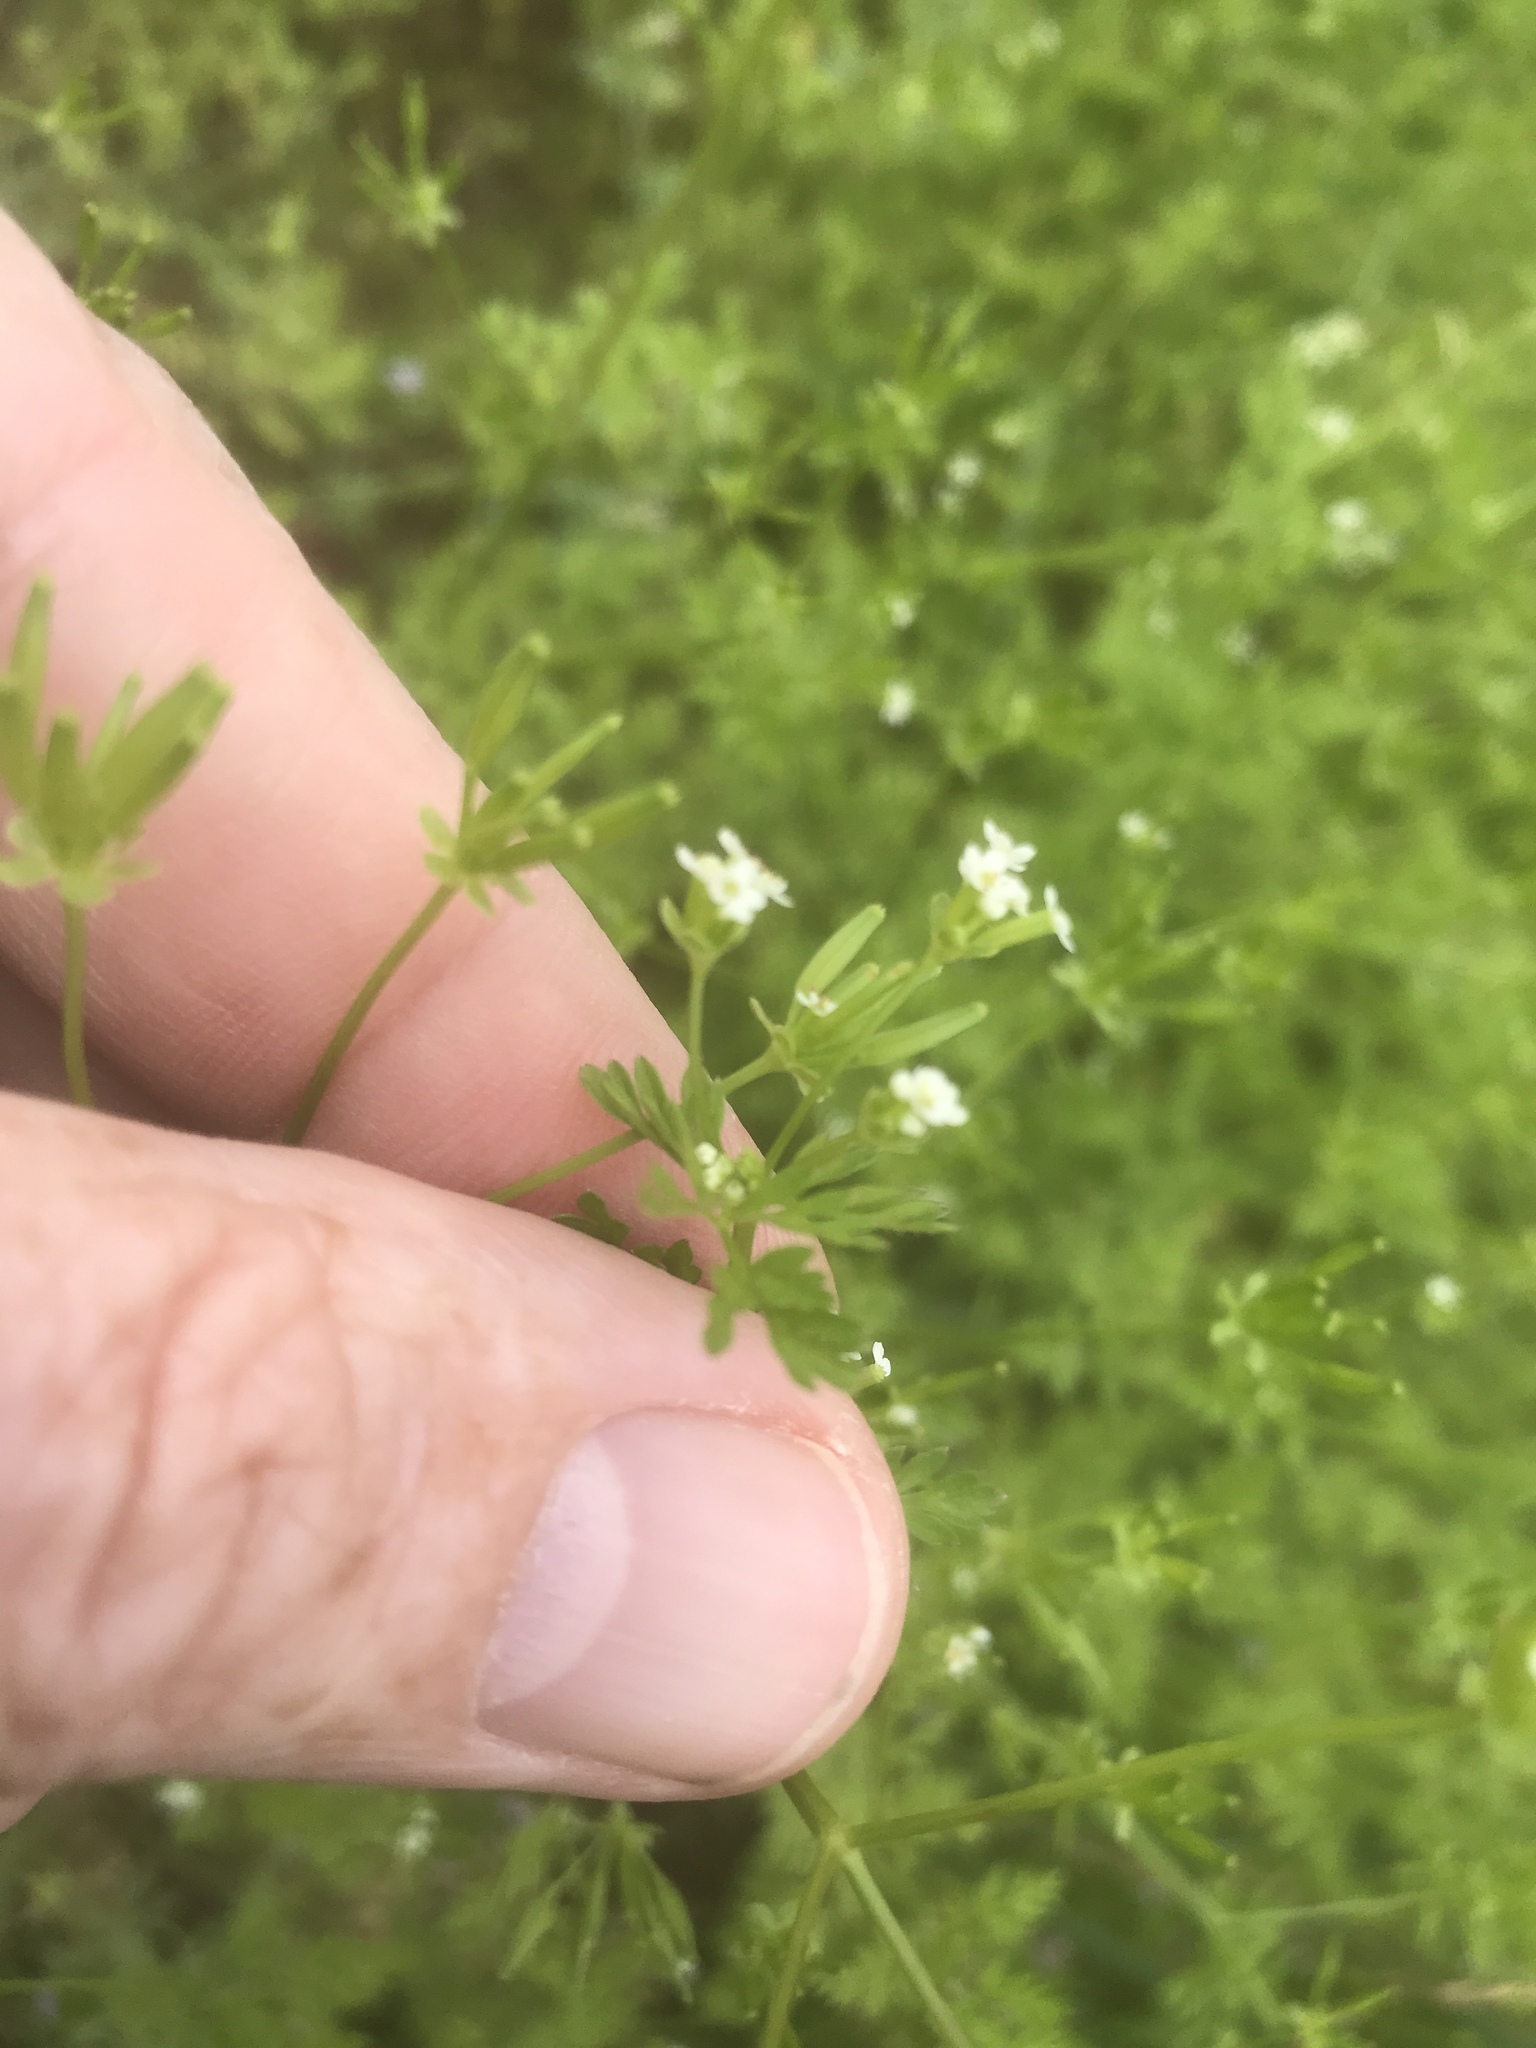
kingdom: Plantae
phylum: Tracheophyta
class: Magnoliopsida
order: Apiales
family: Apiaceae
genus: Chaerophyllum
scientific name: Chaerophyllum tainturieri
